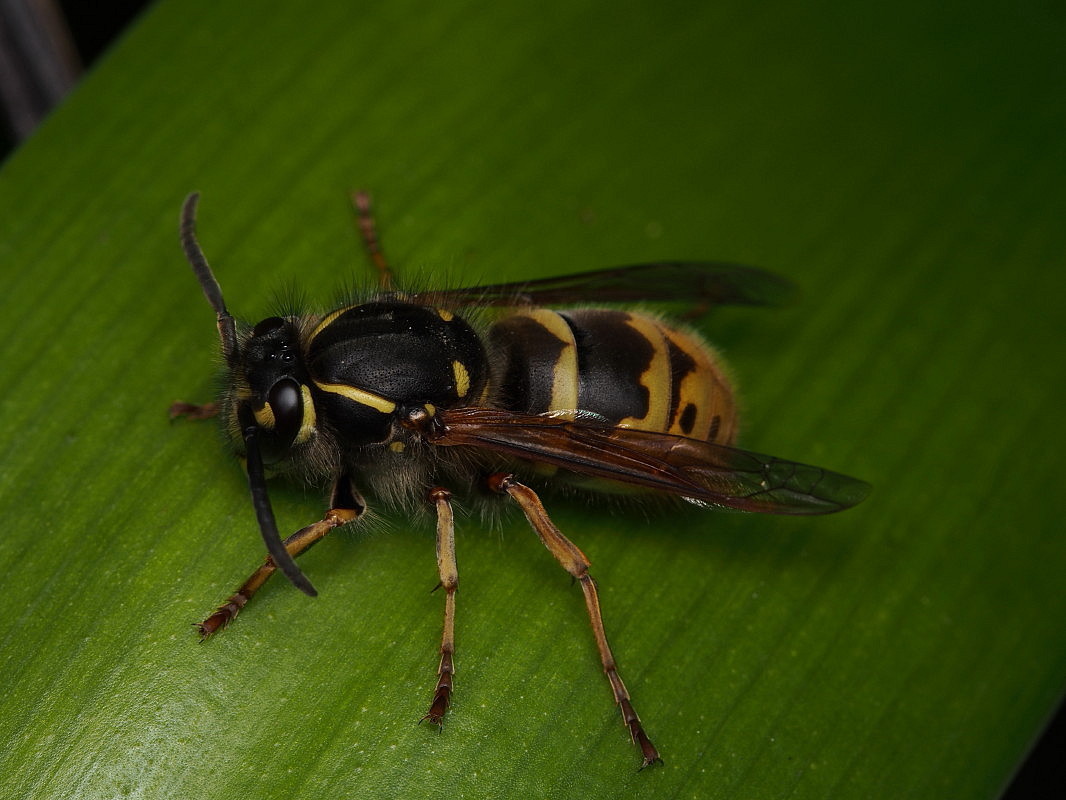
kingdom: Animalia
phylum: Arthropoda
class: Insecta
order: Hymenoptera
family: Vespidae
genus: Vespula
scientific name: Vespula vulgaris
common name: Common wasp
